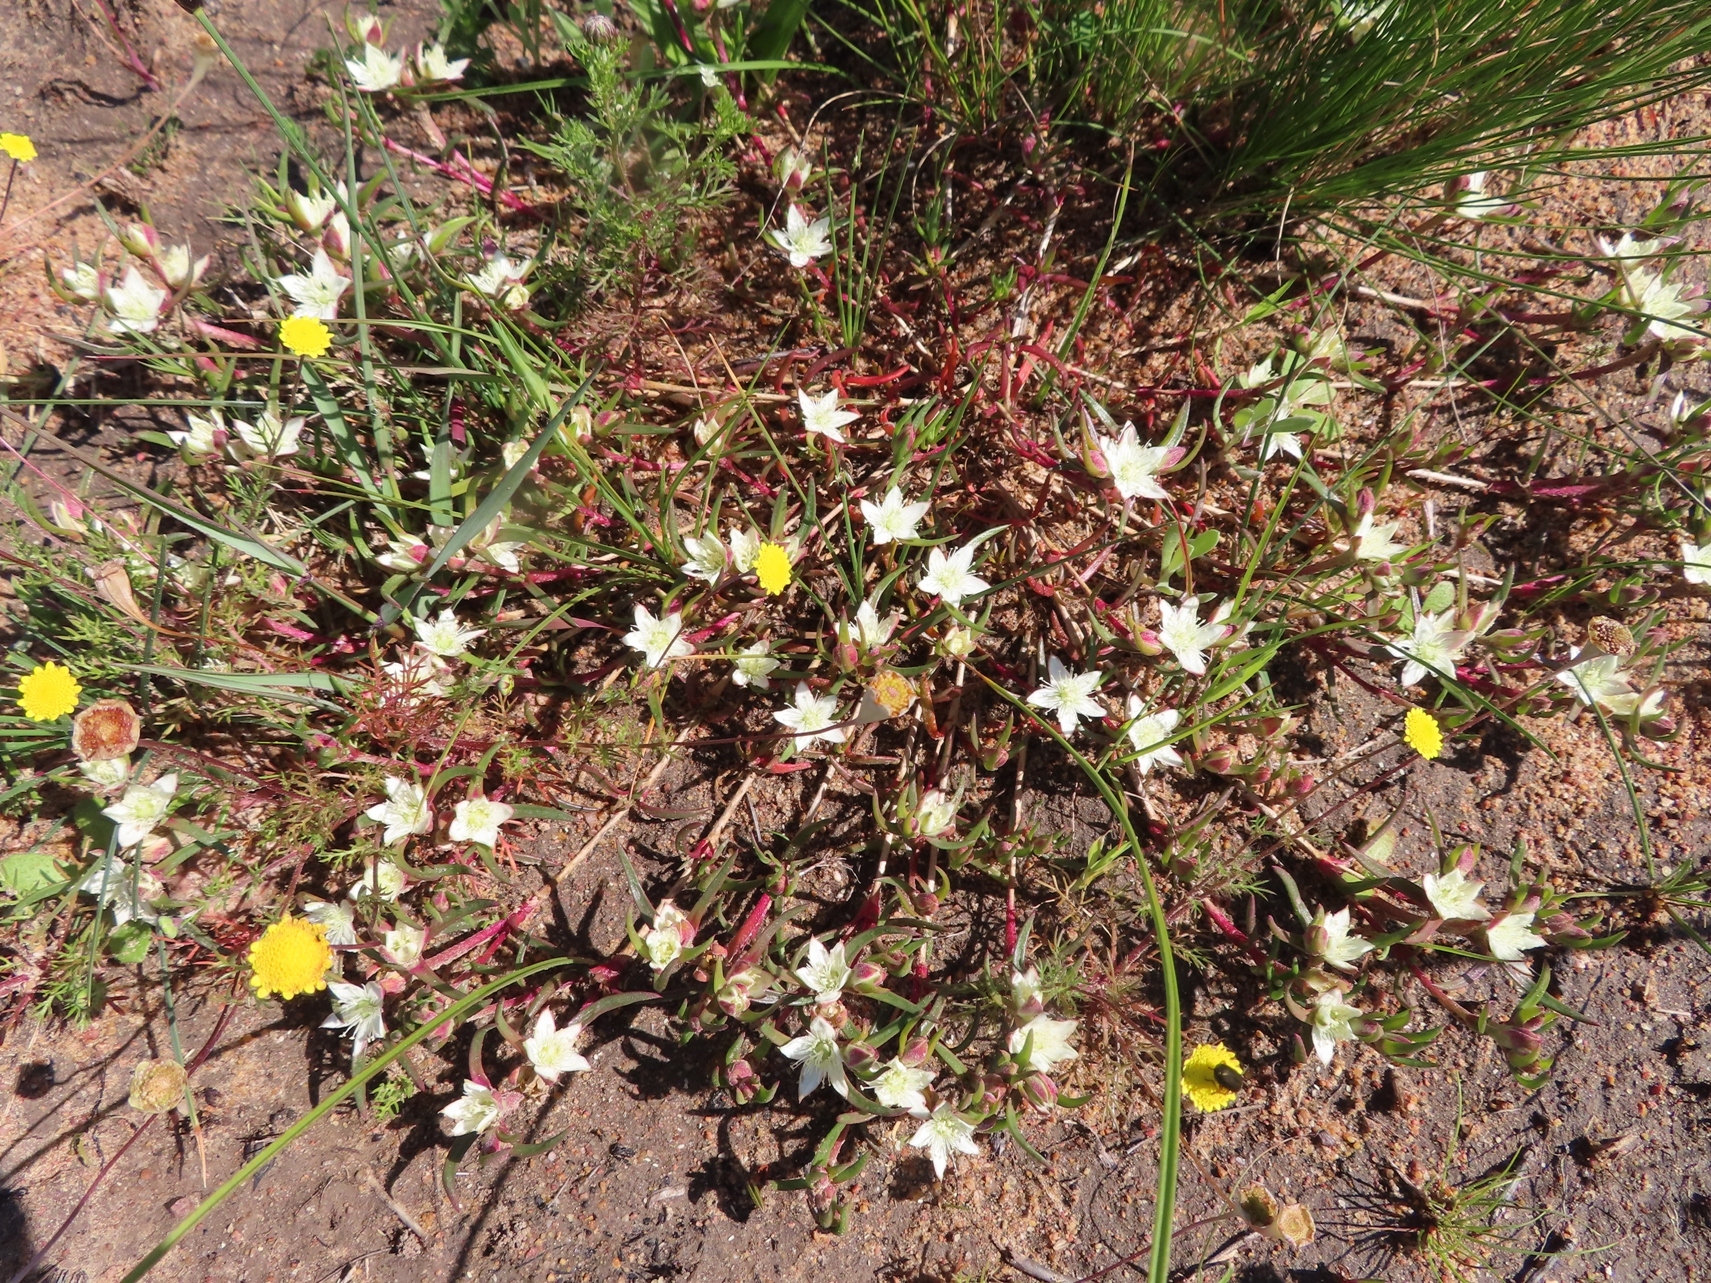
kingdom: Plantae
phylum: Tracheophyta
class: Magnoliopsida
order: Caryophyllales
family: Aizoaceae
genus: Aizoon
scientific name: Aizoon sarmentosum
